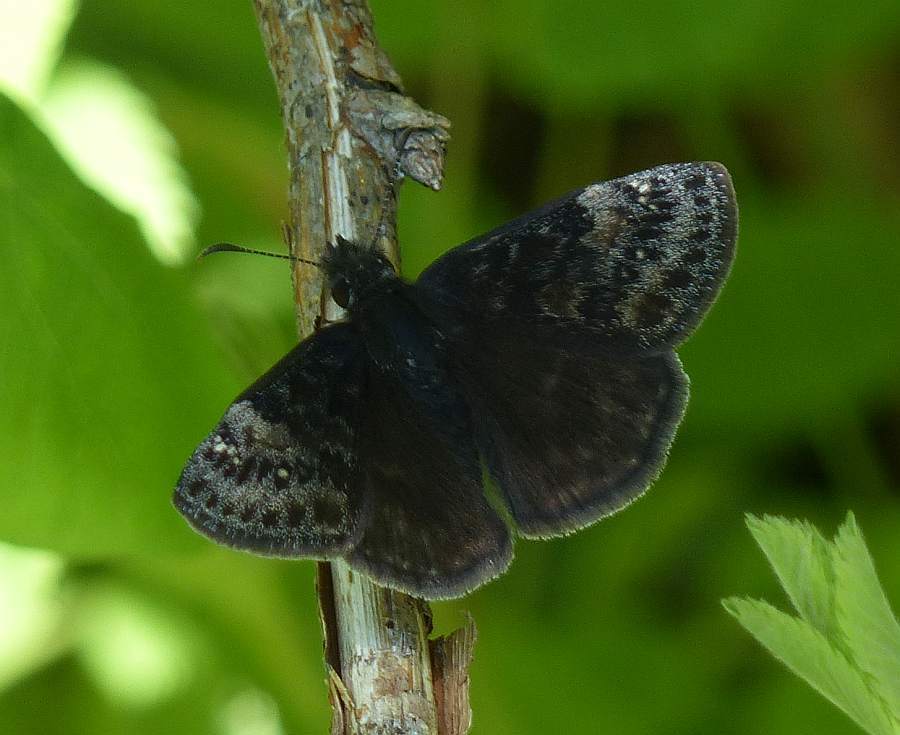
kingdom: Animalia
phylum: Arthropoda
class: Insecta
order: Lepidoptera
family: Hesperiidae
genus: Erynnis
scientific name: Erynnis lucilius
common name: Columbine duskywing
